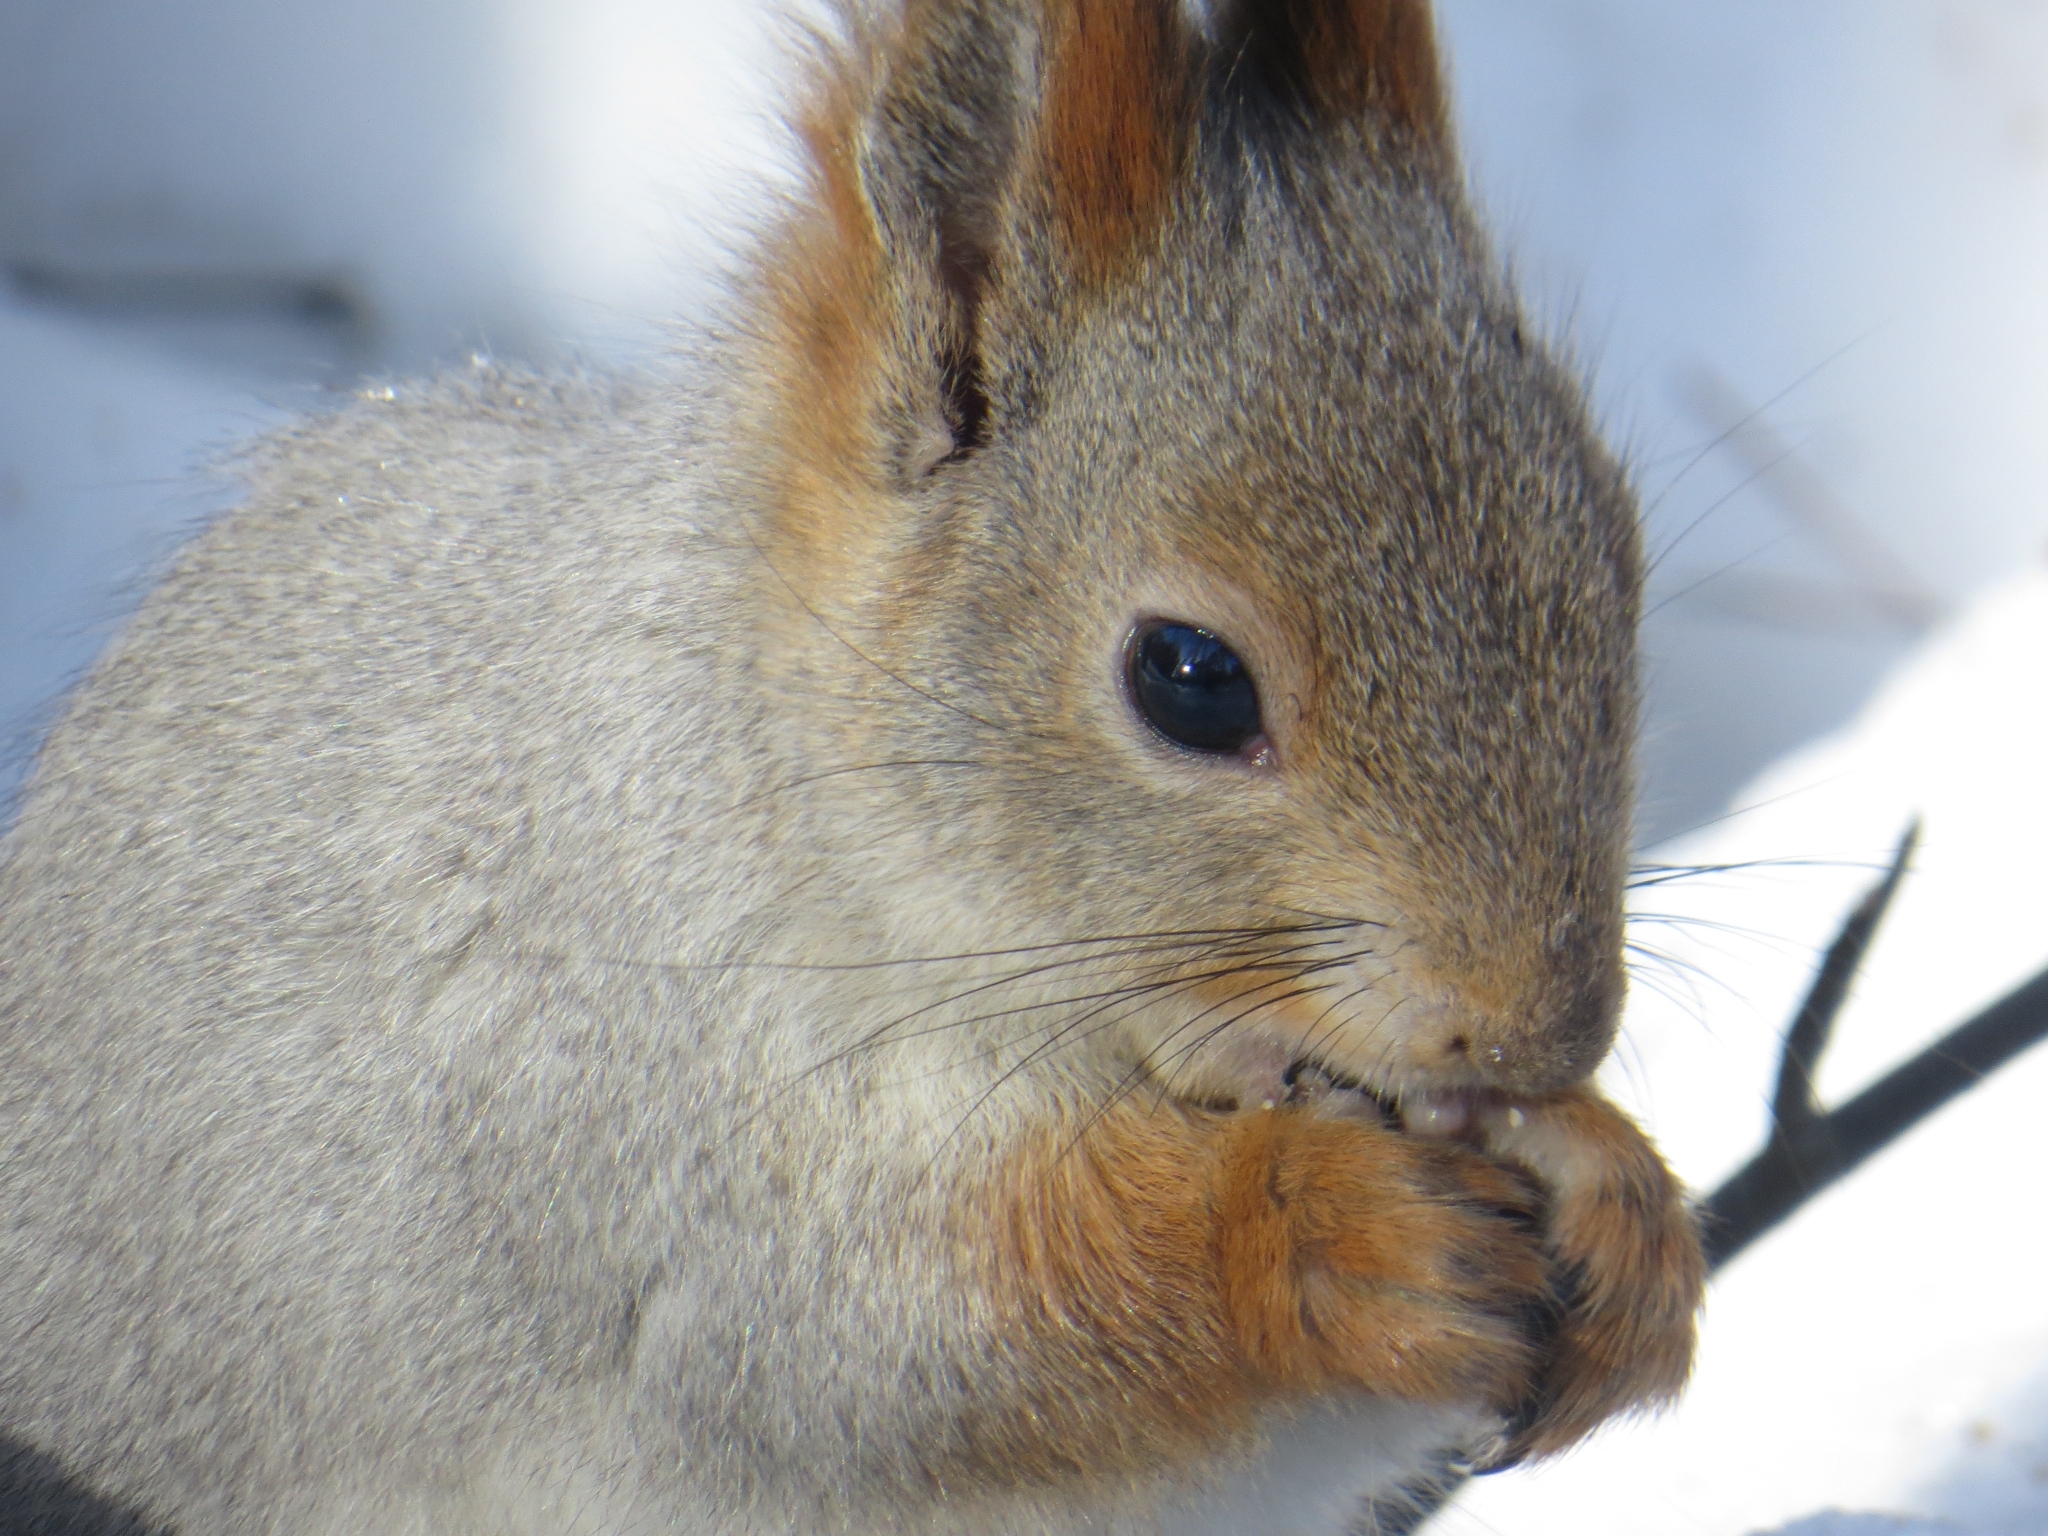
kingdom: Animalia
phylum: Chordata
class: Mammalia
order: Rodentia
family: Sciuridae
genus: Sciurus
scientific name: Sciurus vulgaris
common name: Eurasian red squirrel
